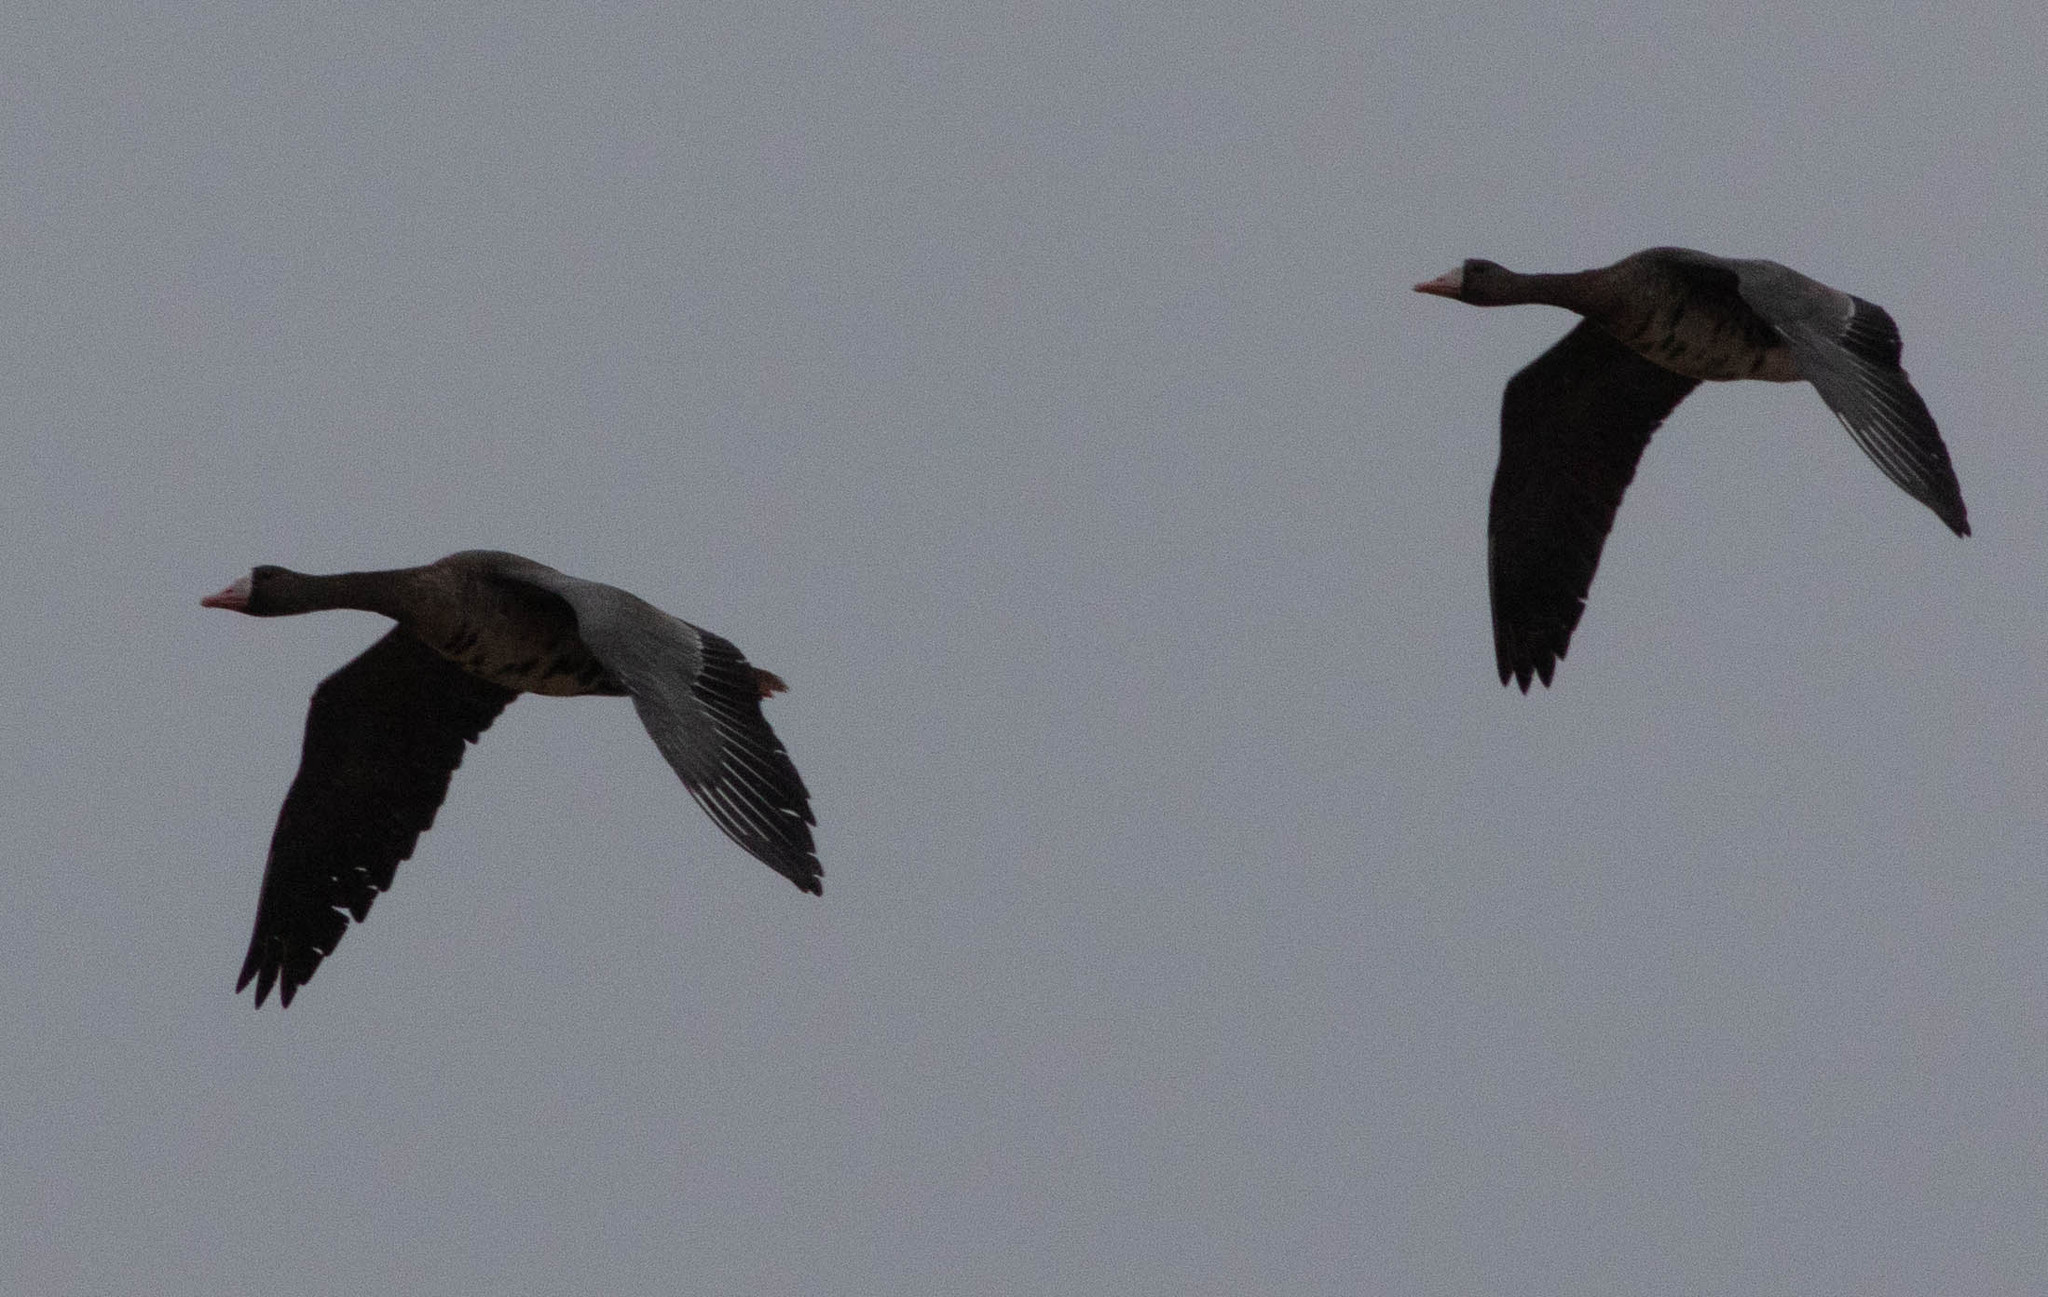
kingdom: Animalia
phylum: Chordata
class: Aves
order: Anseriformes
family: Anatidae
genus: Anser
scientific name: Anser albifrons
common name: Greater white-fronted goose
